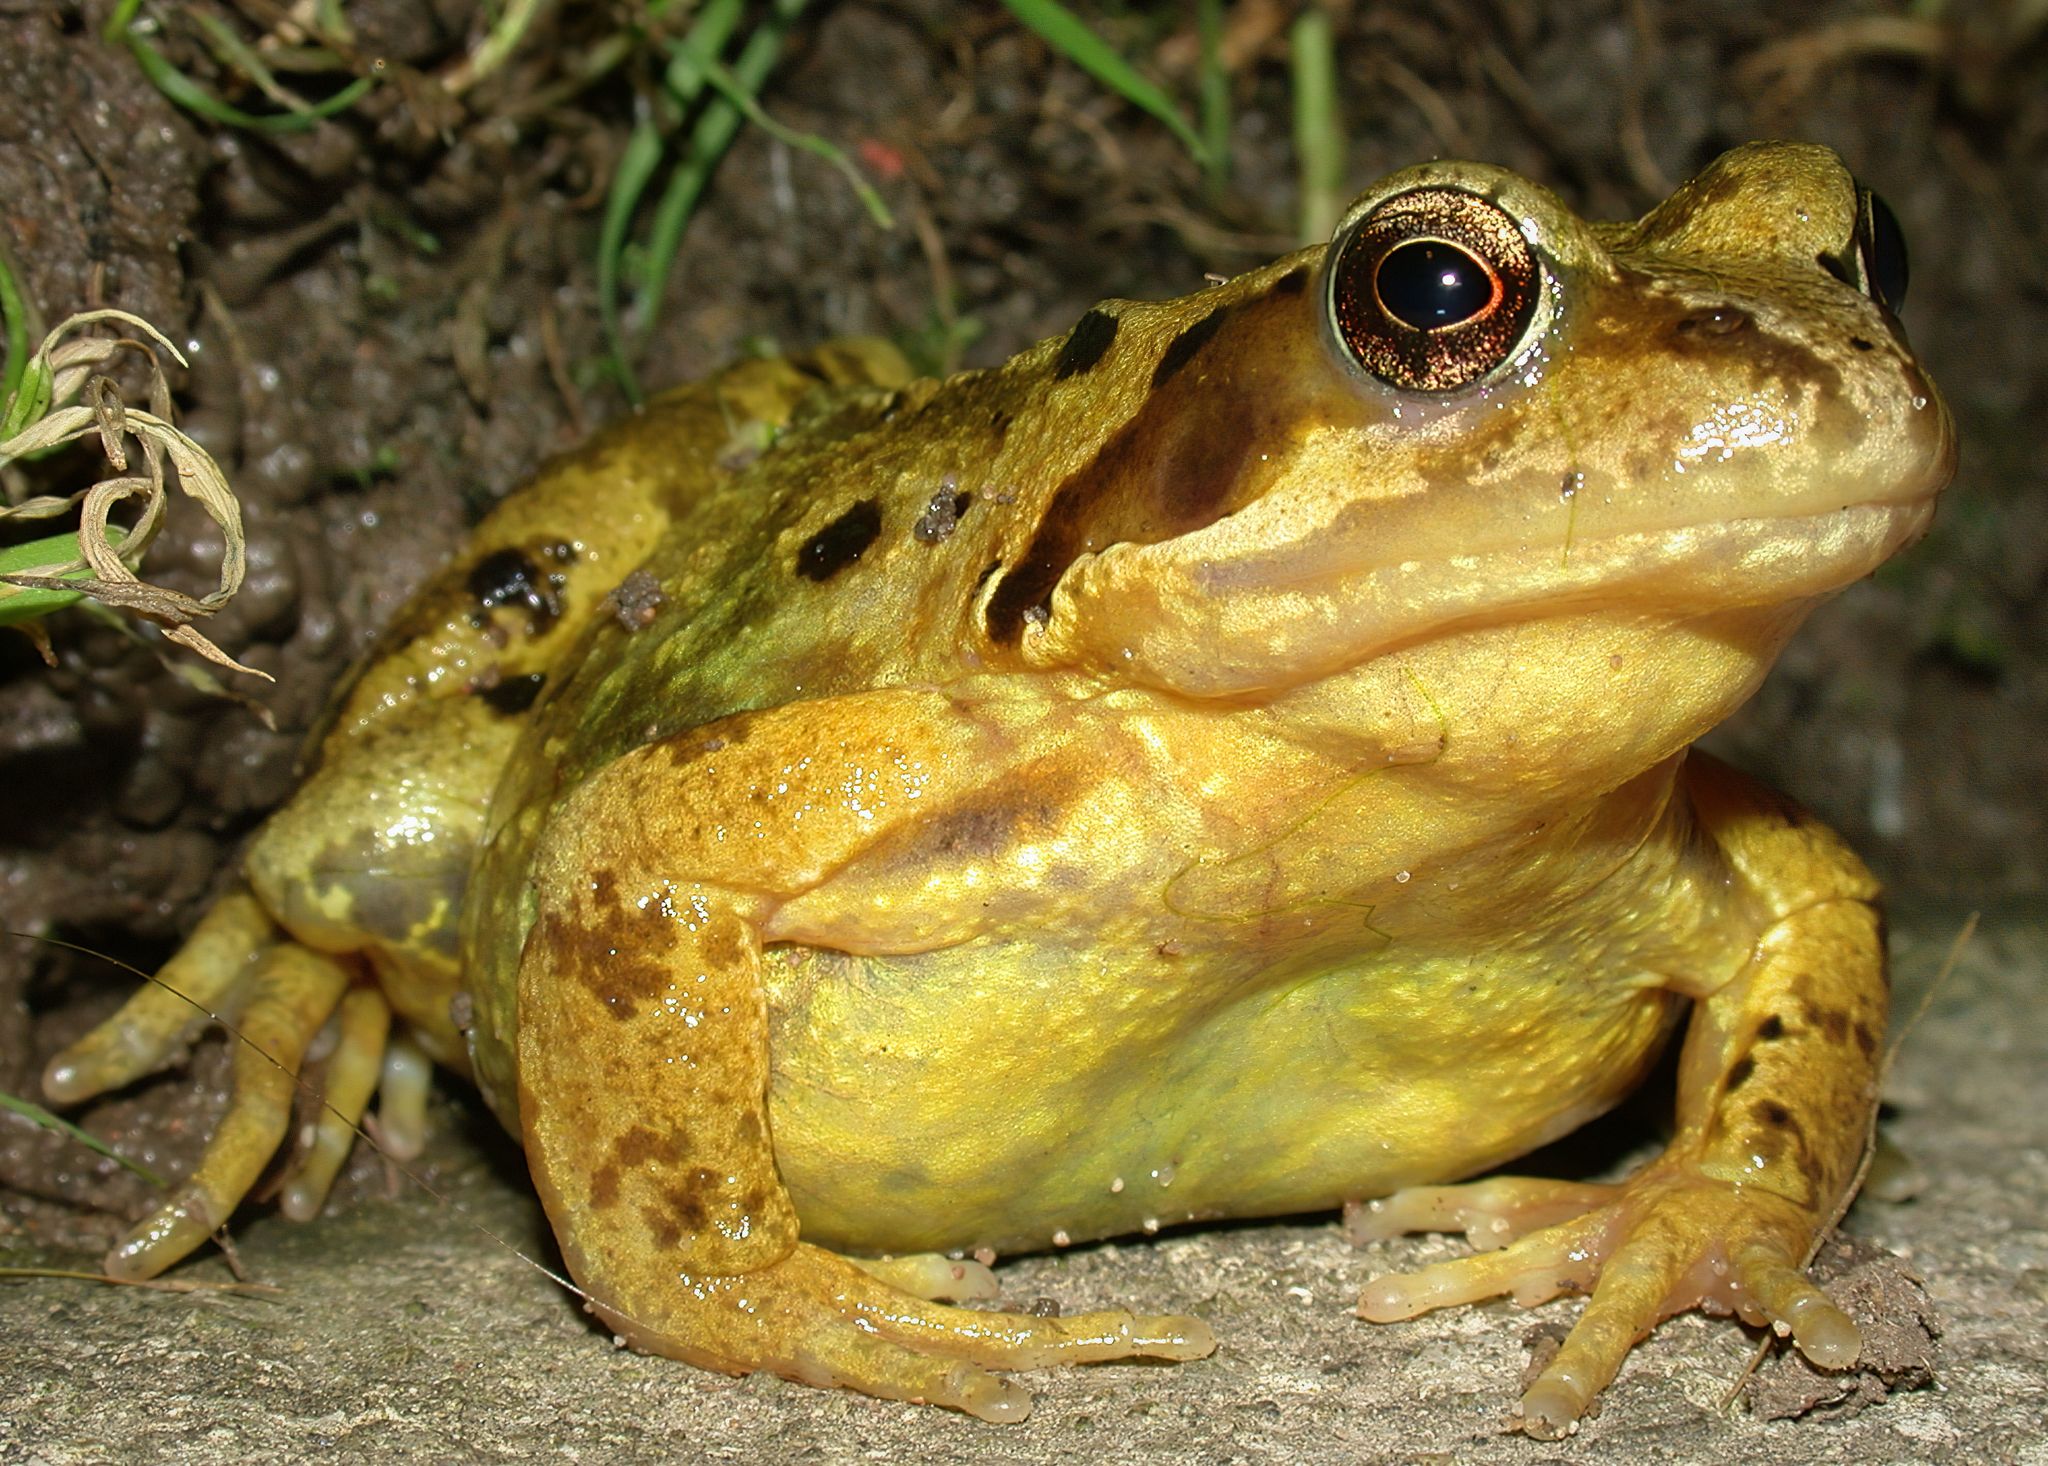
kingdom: Animalia
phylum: Chordata
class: Amphibia
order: Anura
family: Ranidae
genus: Rana
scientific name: Rana temporaria
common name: Common frog
